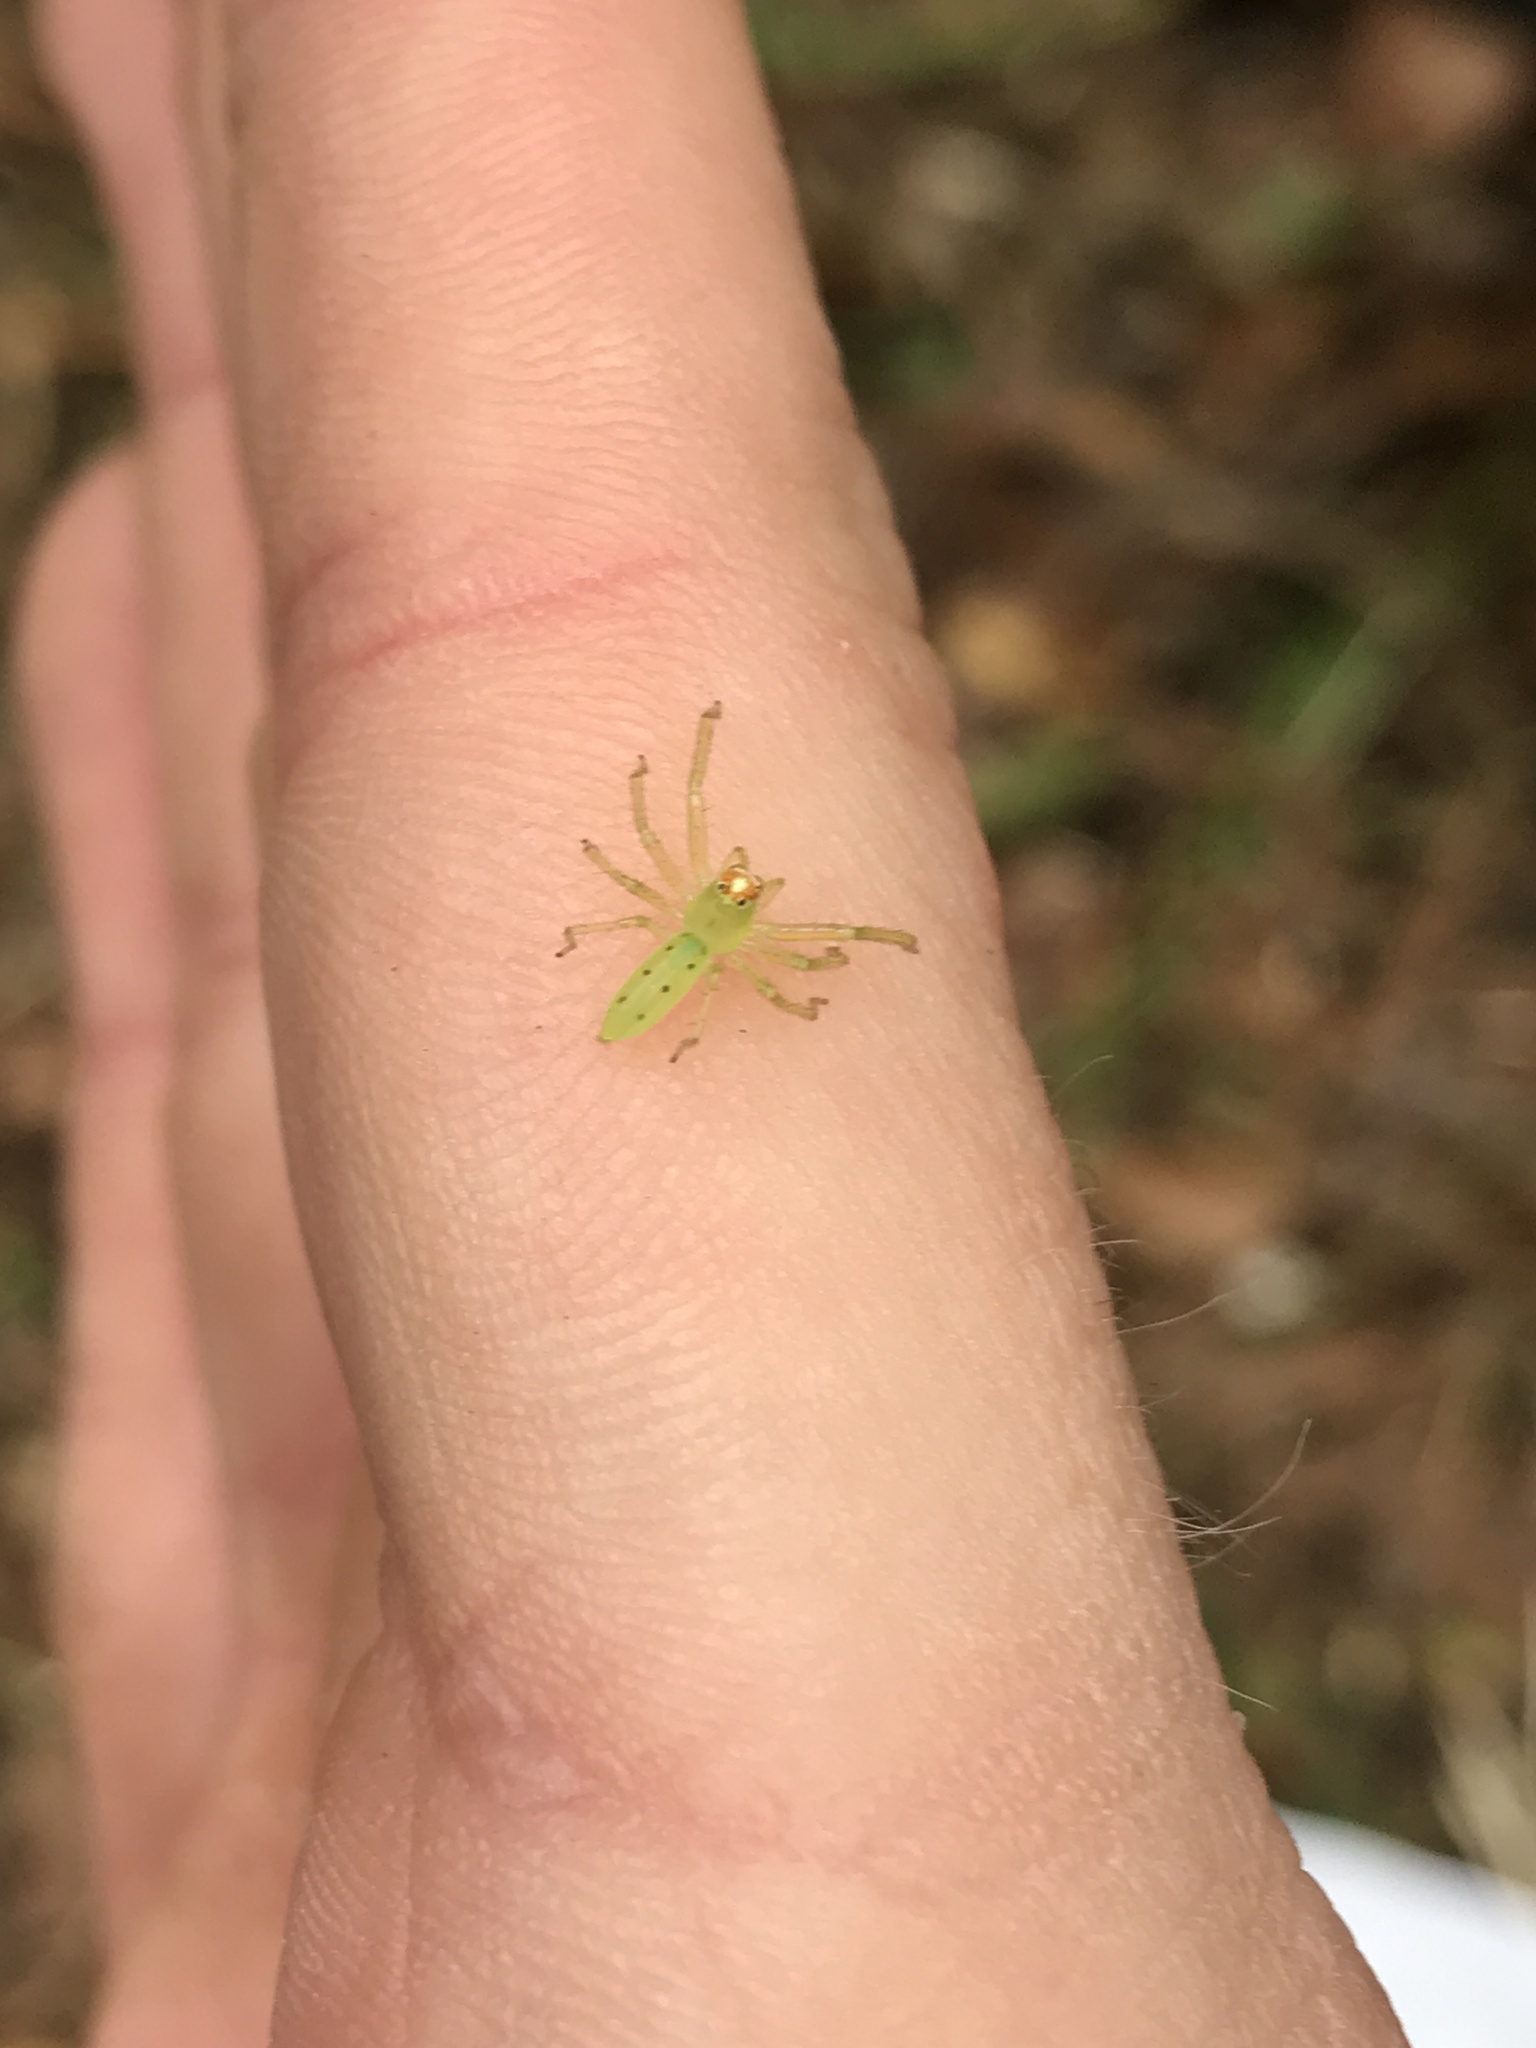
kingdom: Animalia
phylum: Arthropoda
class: Arachnida
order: Araneae
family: Salticidae
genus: Lyssomanes
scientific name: Lyssomanes viridis
